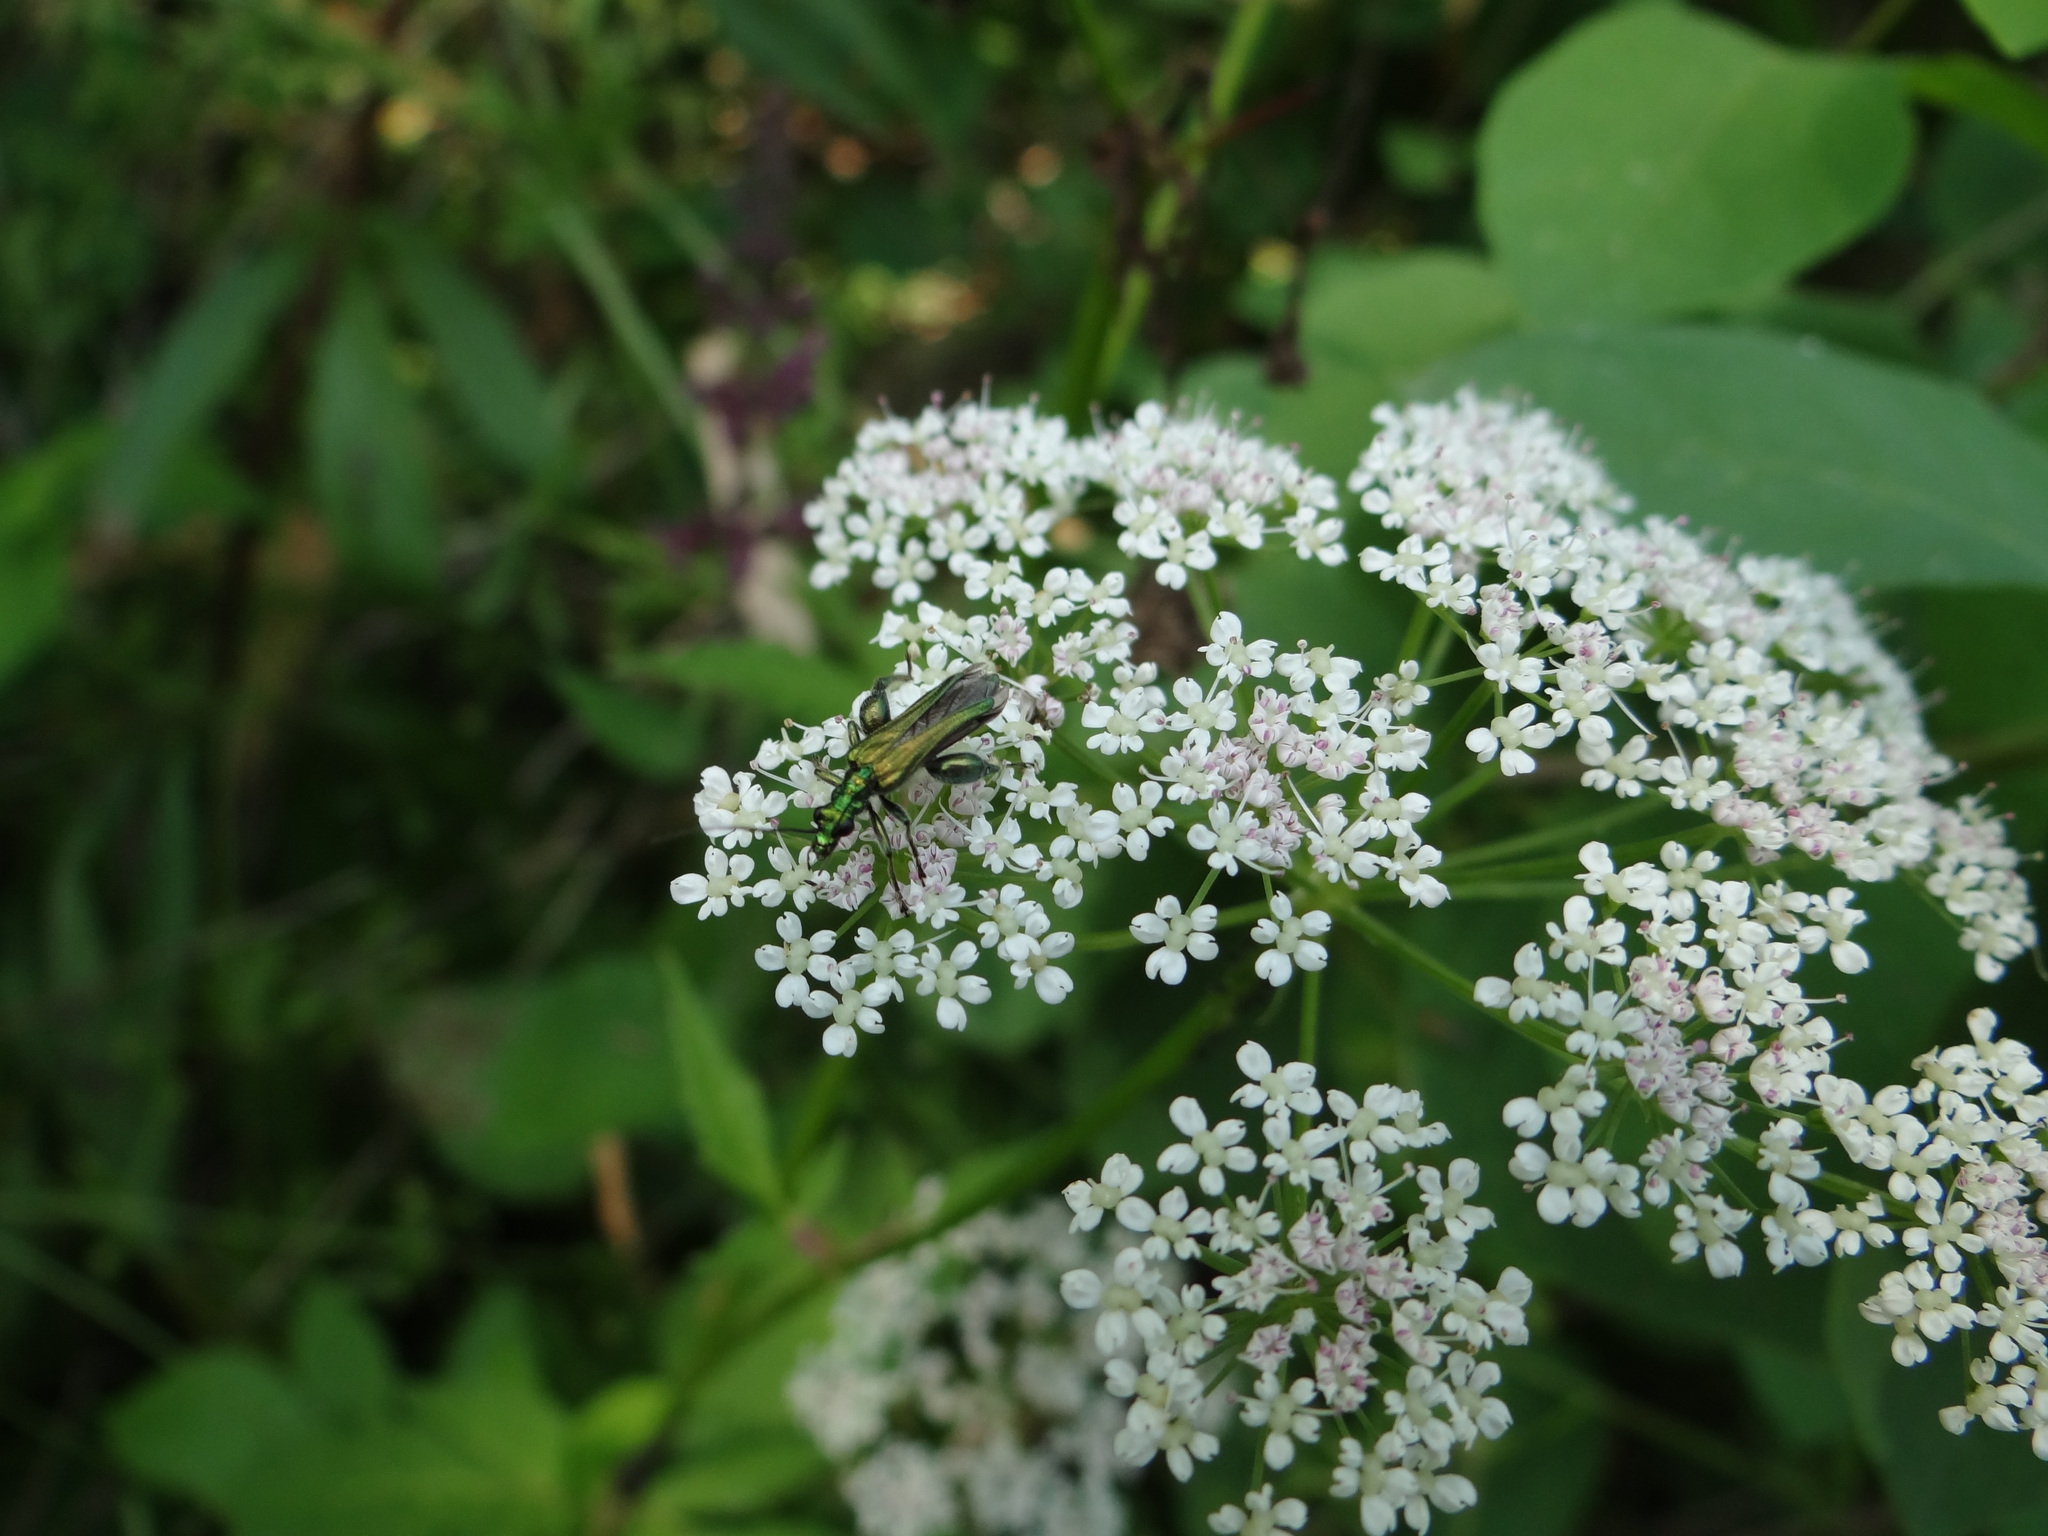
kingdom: Animalia
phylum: Arthropoda
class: Insecta
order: Coleoptera
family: Oedemeridae
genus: Oedemera
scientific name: Oedemera nobilis
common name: Swollen-thighed beetle
